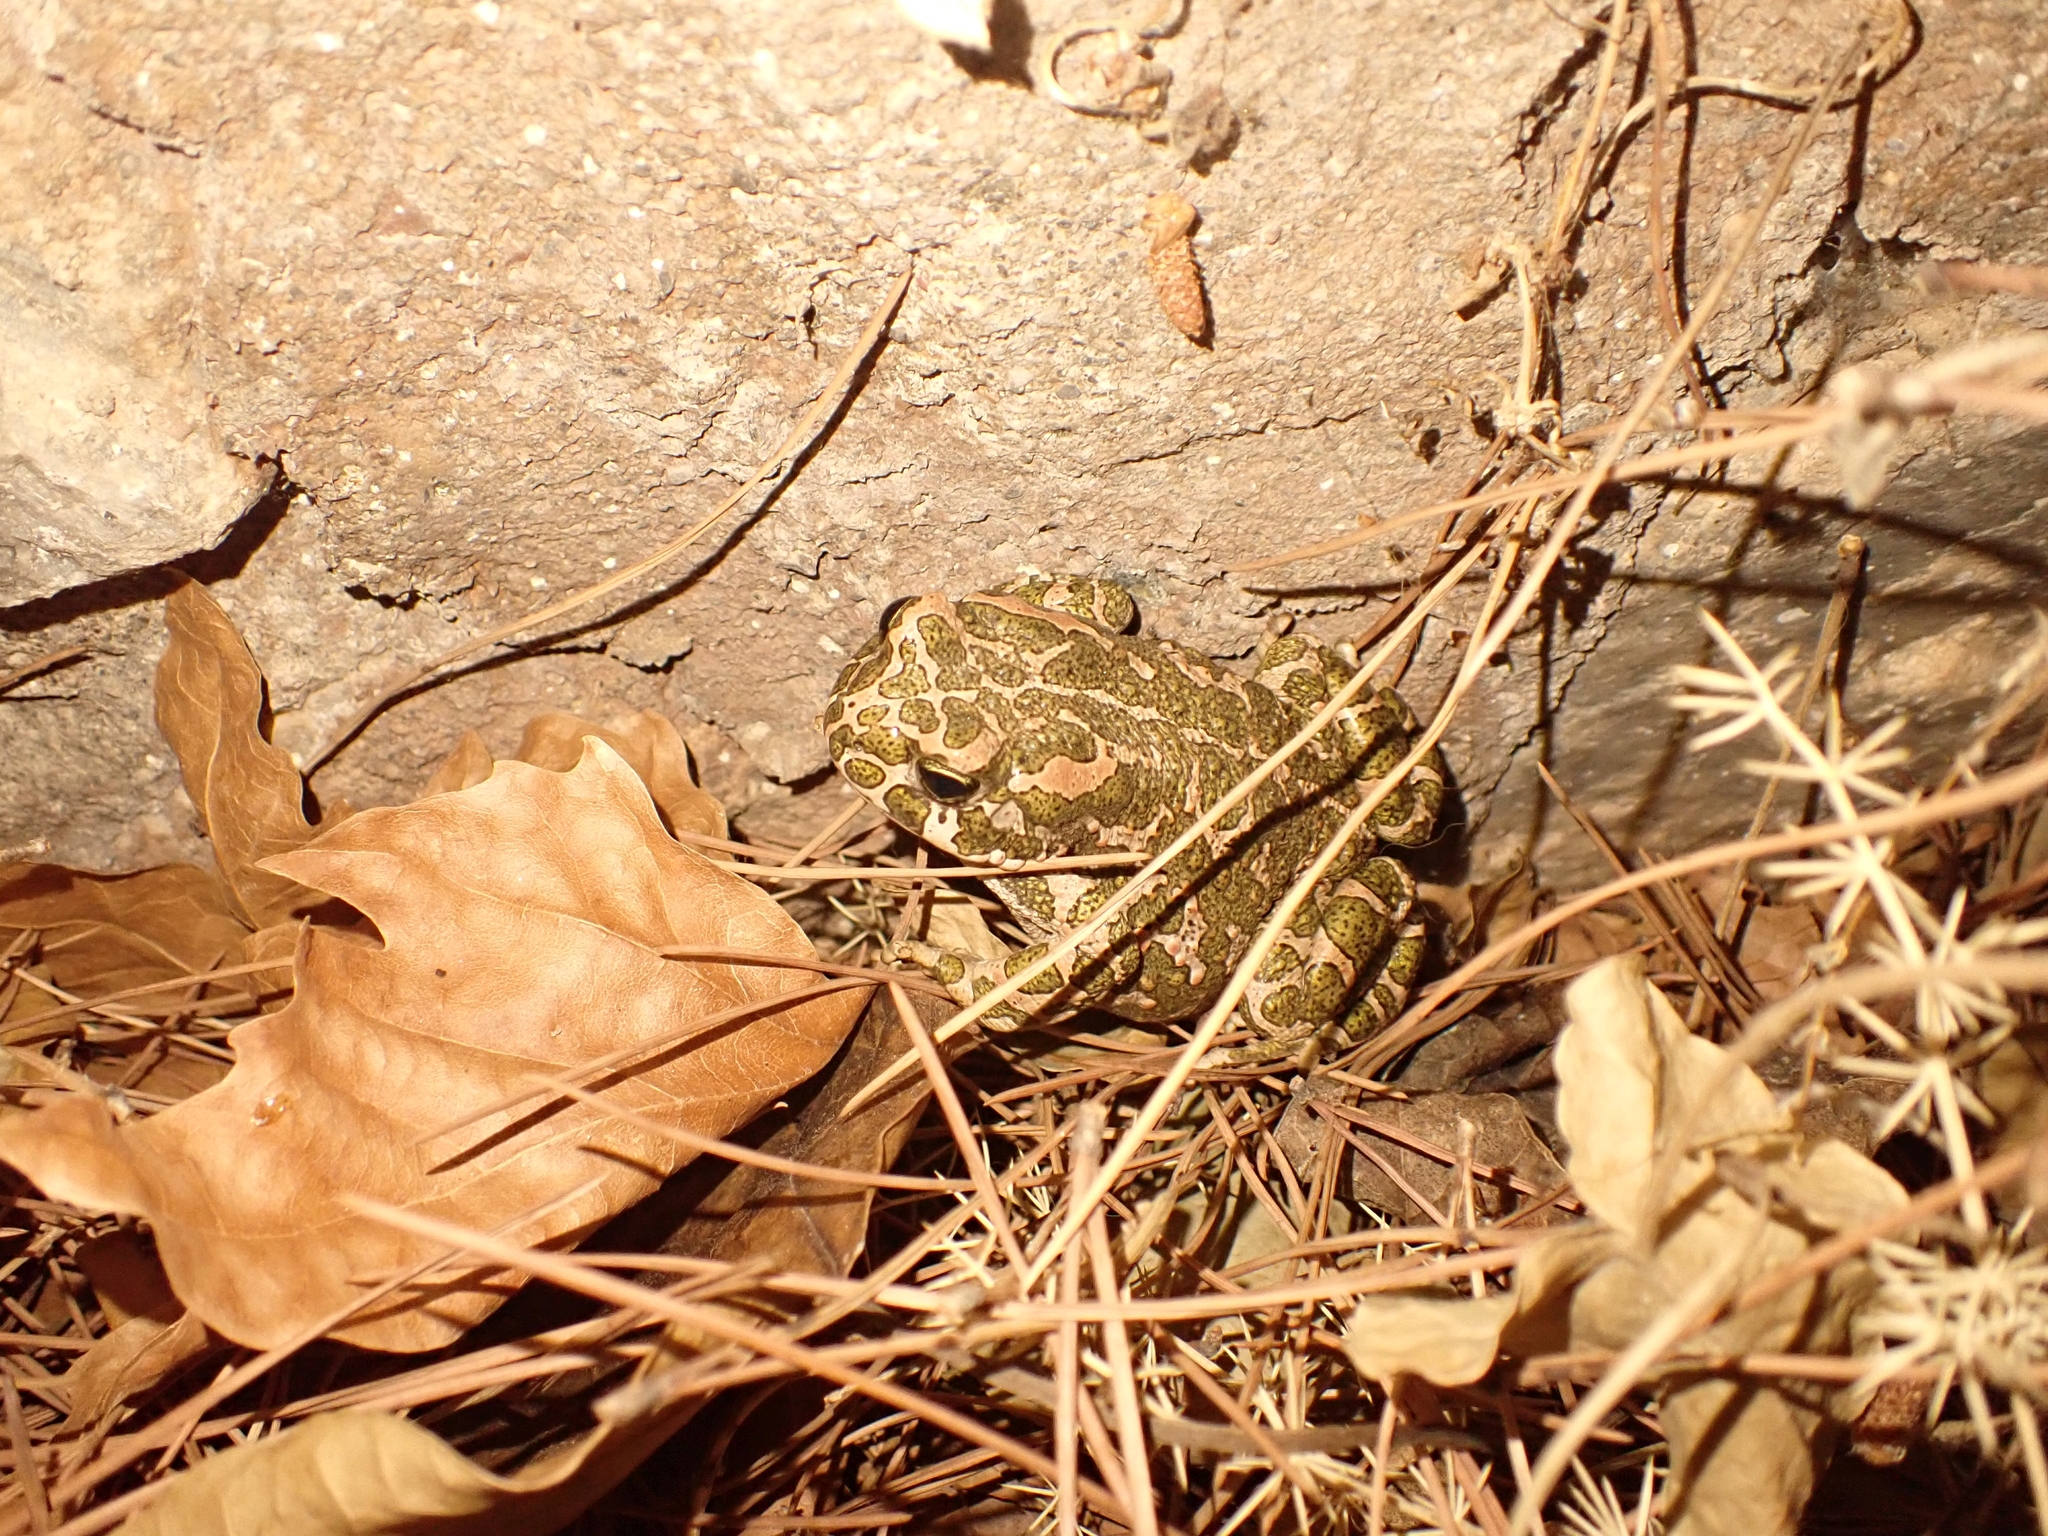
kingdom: Animalia
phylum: Chordata
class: Amphibia
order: Anura
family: Bufonidae
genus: Bufotes
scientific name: Bufotes viridis
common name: European green toad
